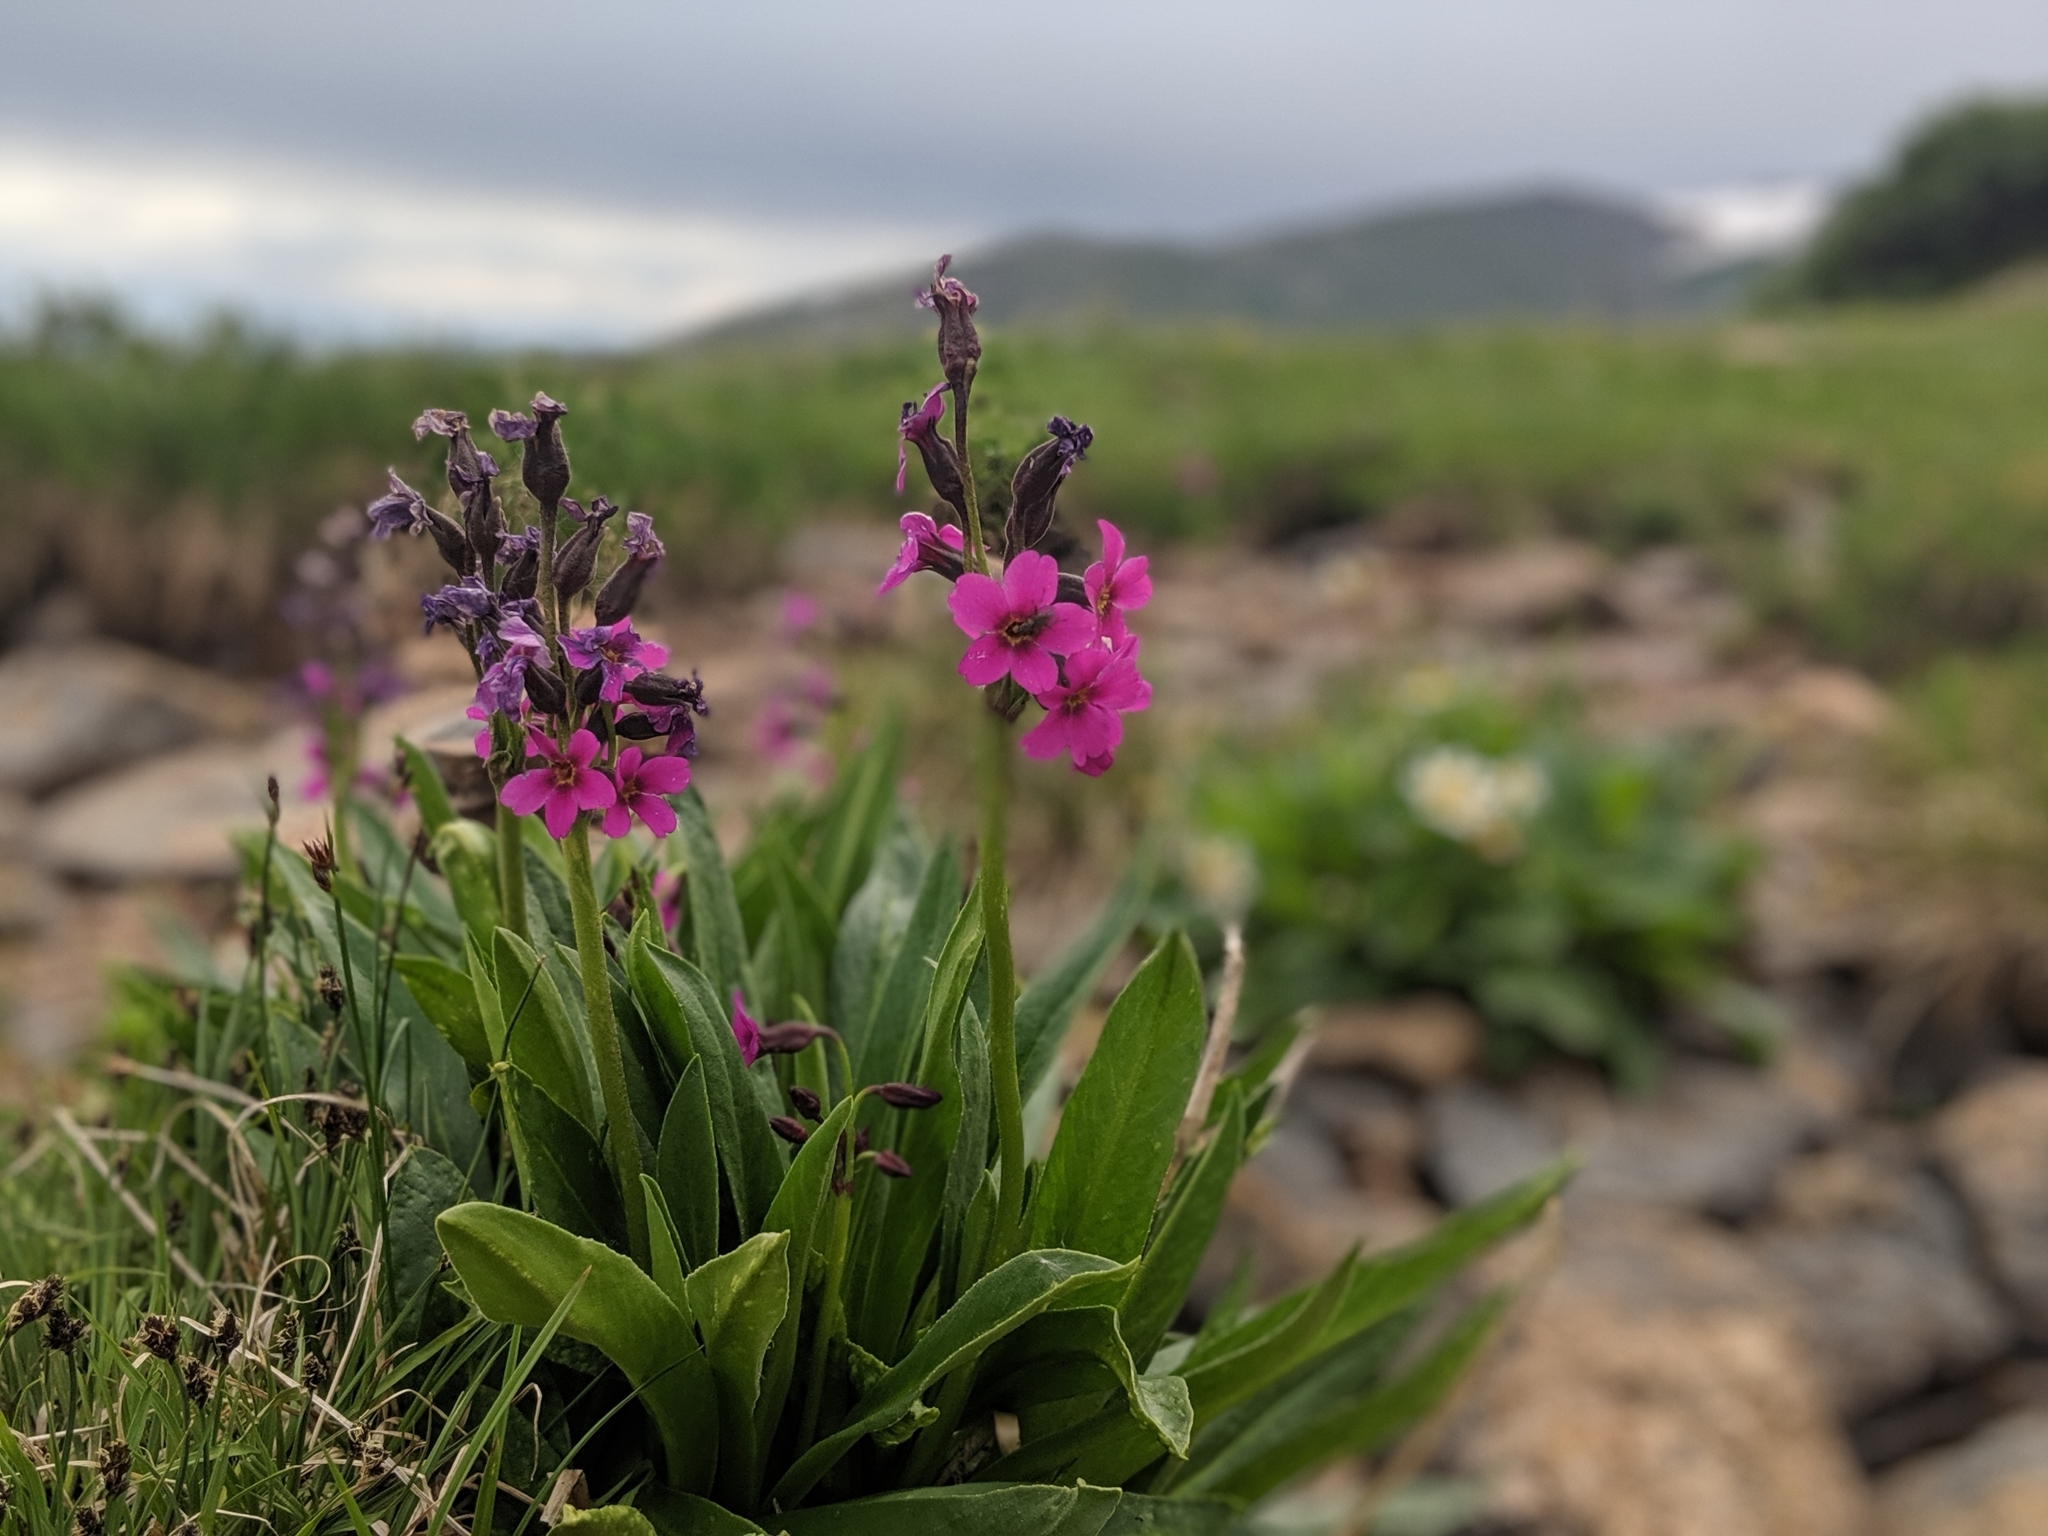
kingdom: Plantae
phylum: Tracheophyta
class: Magnoliopsida
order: Ericales
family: Primulaceae
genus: Primula
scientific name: Primula parryi
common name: Parry's primrose
